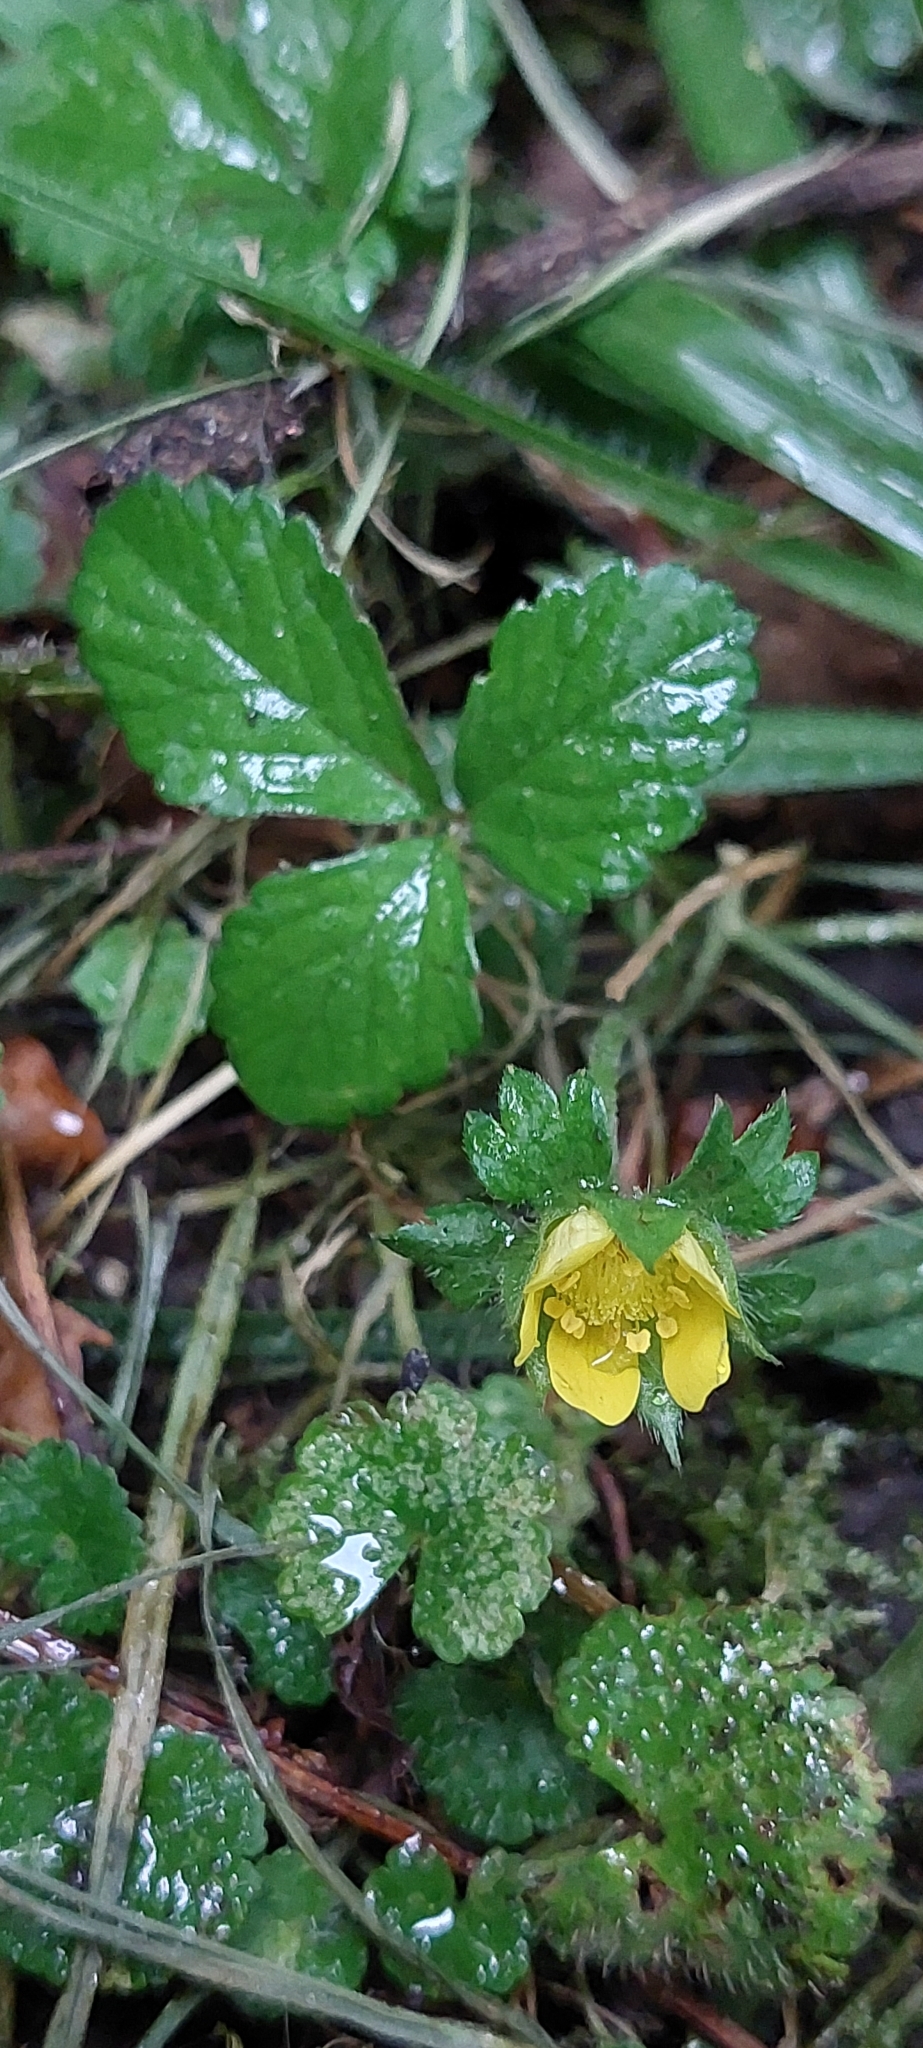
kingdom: Plantae
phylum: Tracheophyta
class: Magnoliopsida
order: Rosales
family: Rosaceae
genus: Potentilla
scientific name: Potentilla indica
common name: Yellow-flowered strawberry
